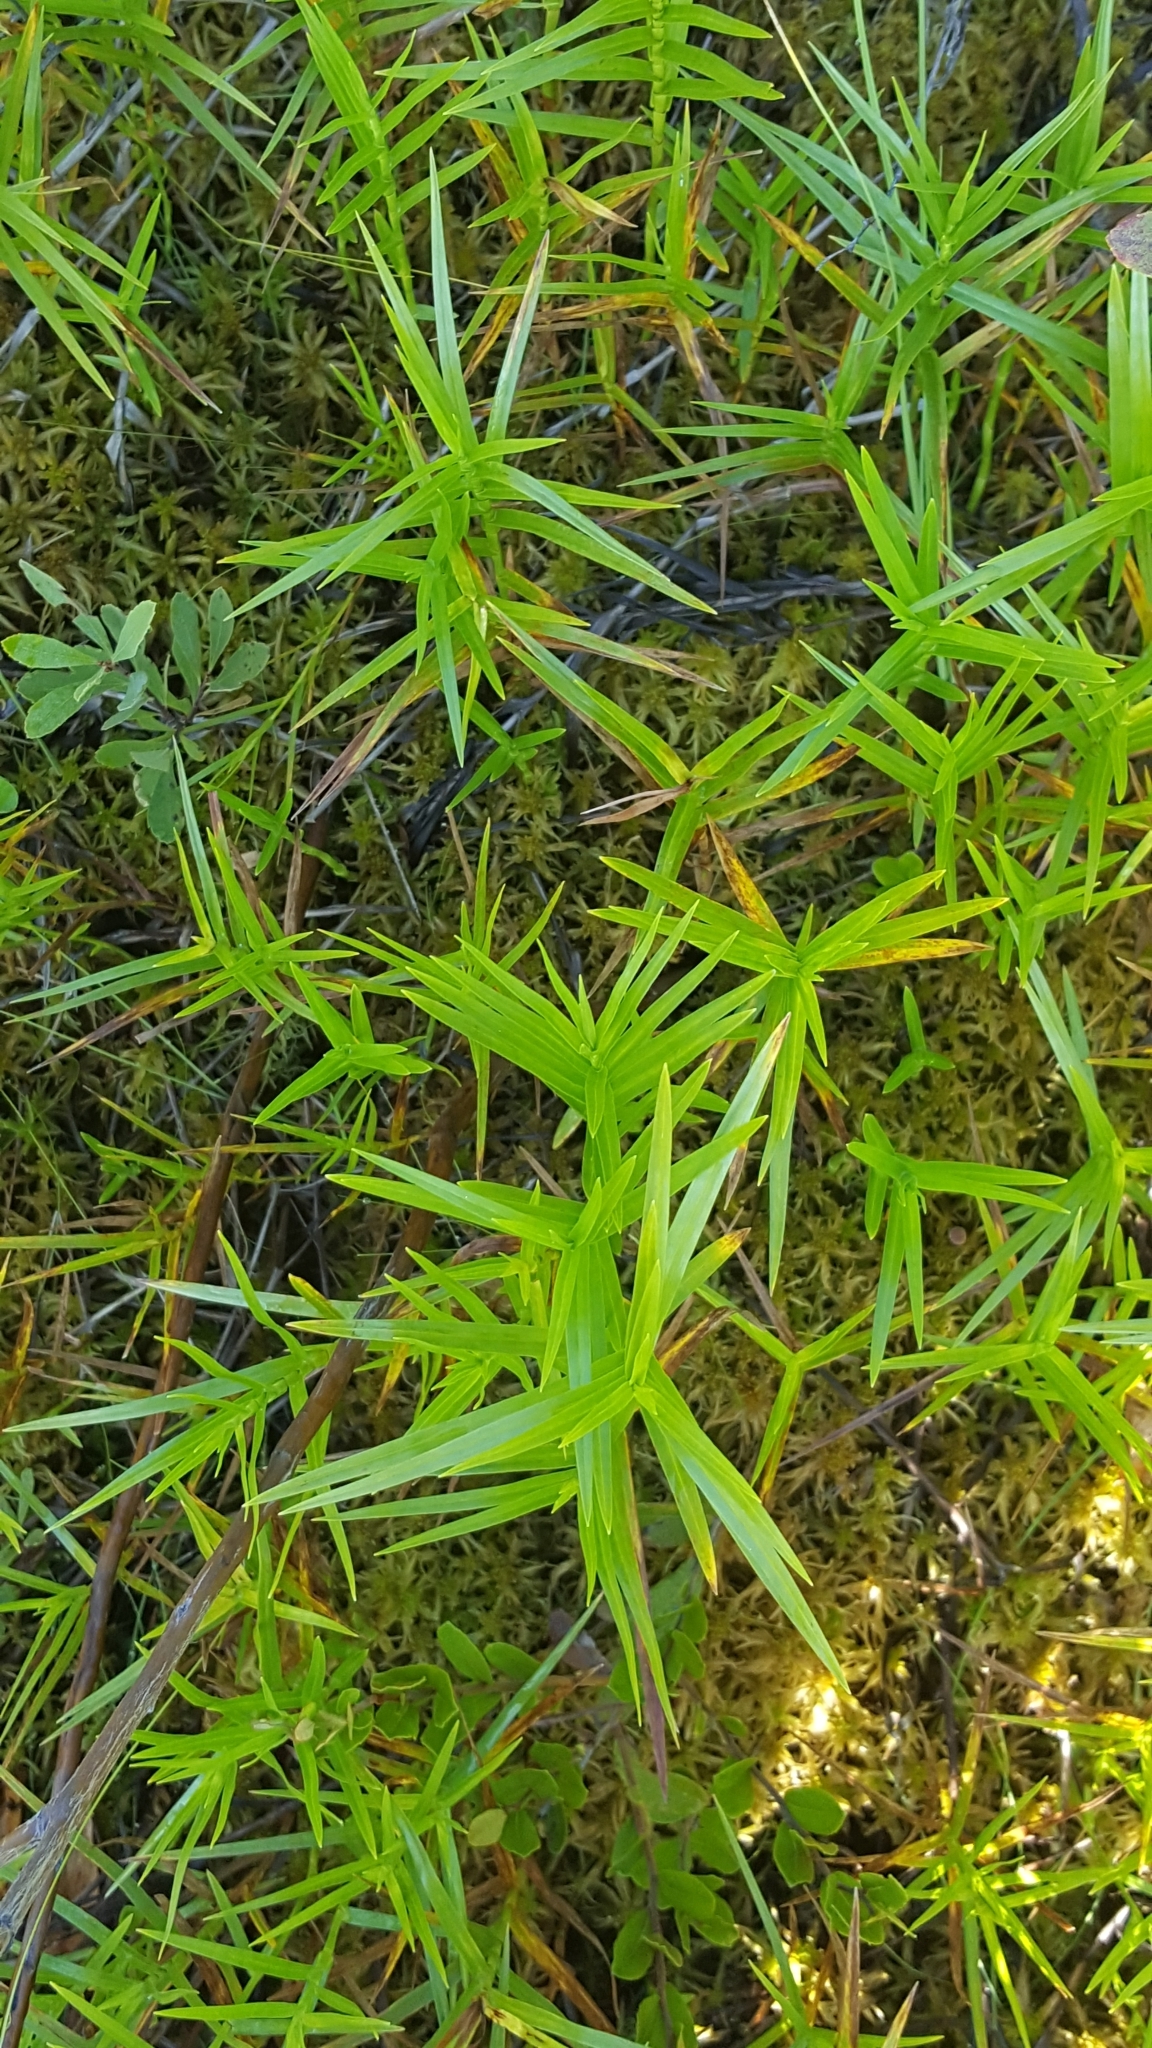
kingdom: Plantae
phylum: Tracheophyta
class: Liliopsida
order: Poales
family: Cyperaceae
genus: Dulichium
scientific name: Dulichium arundinaceum
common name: Three-way sedge
